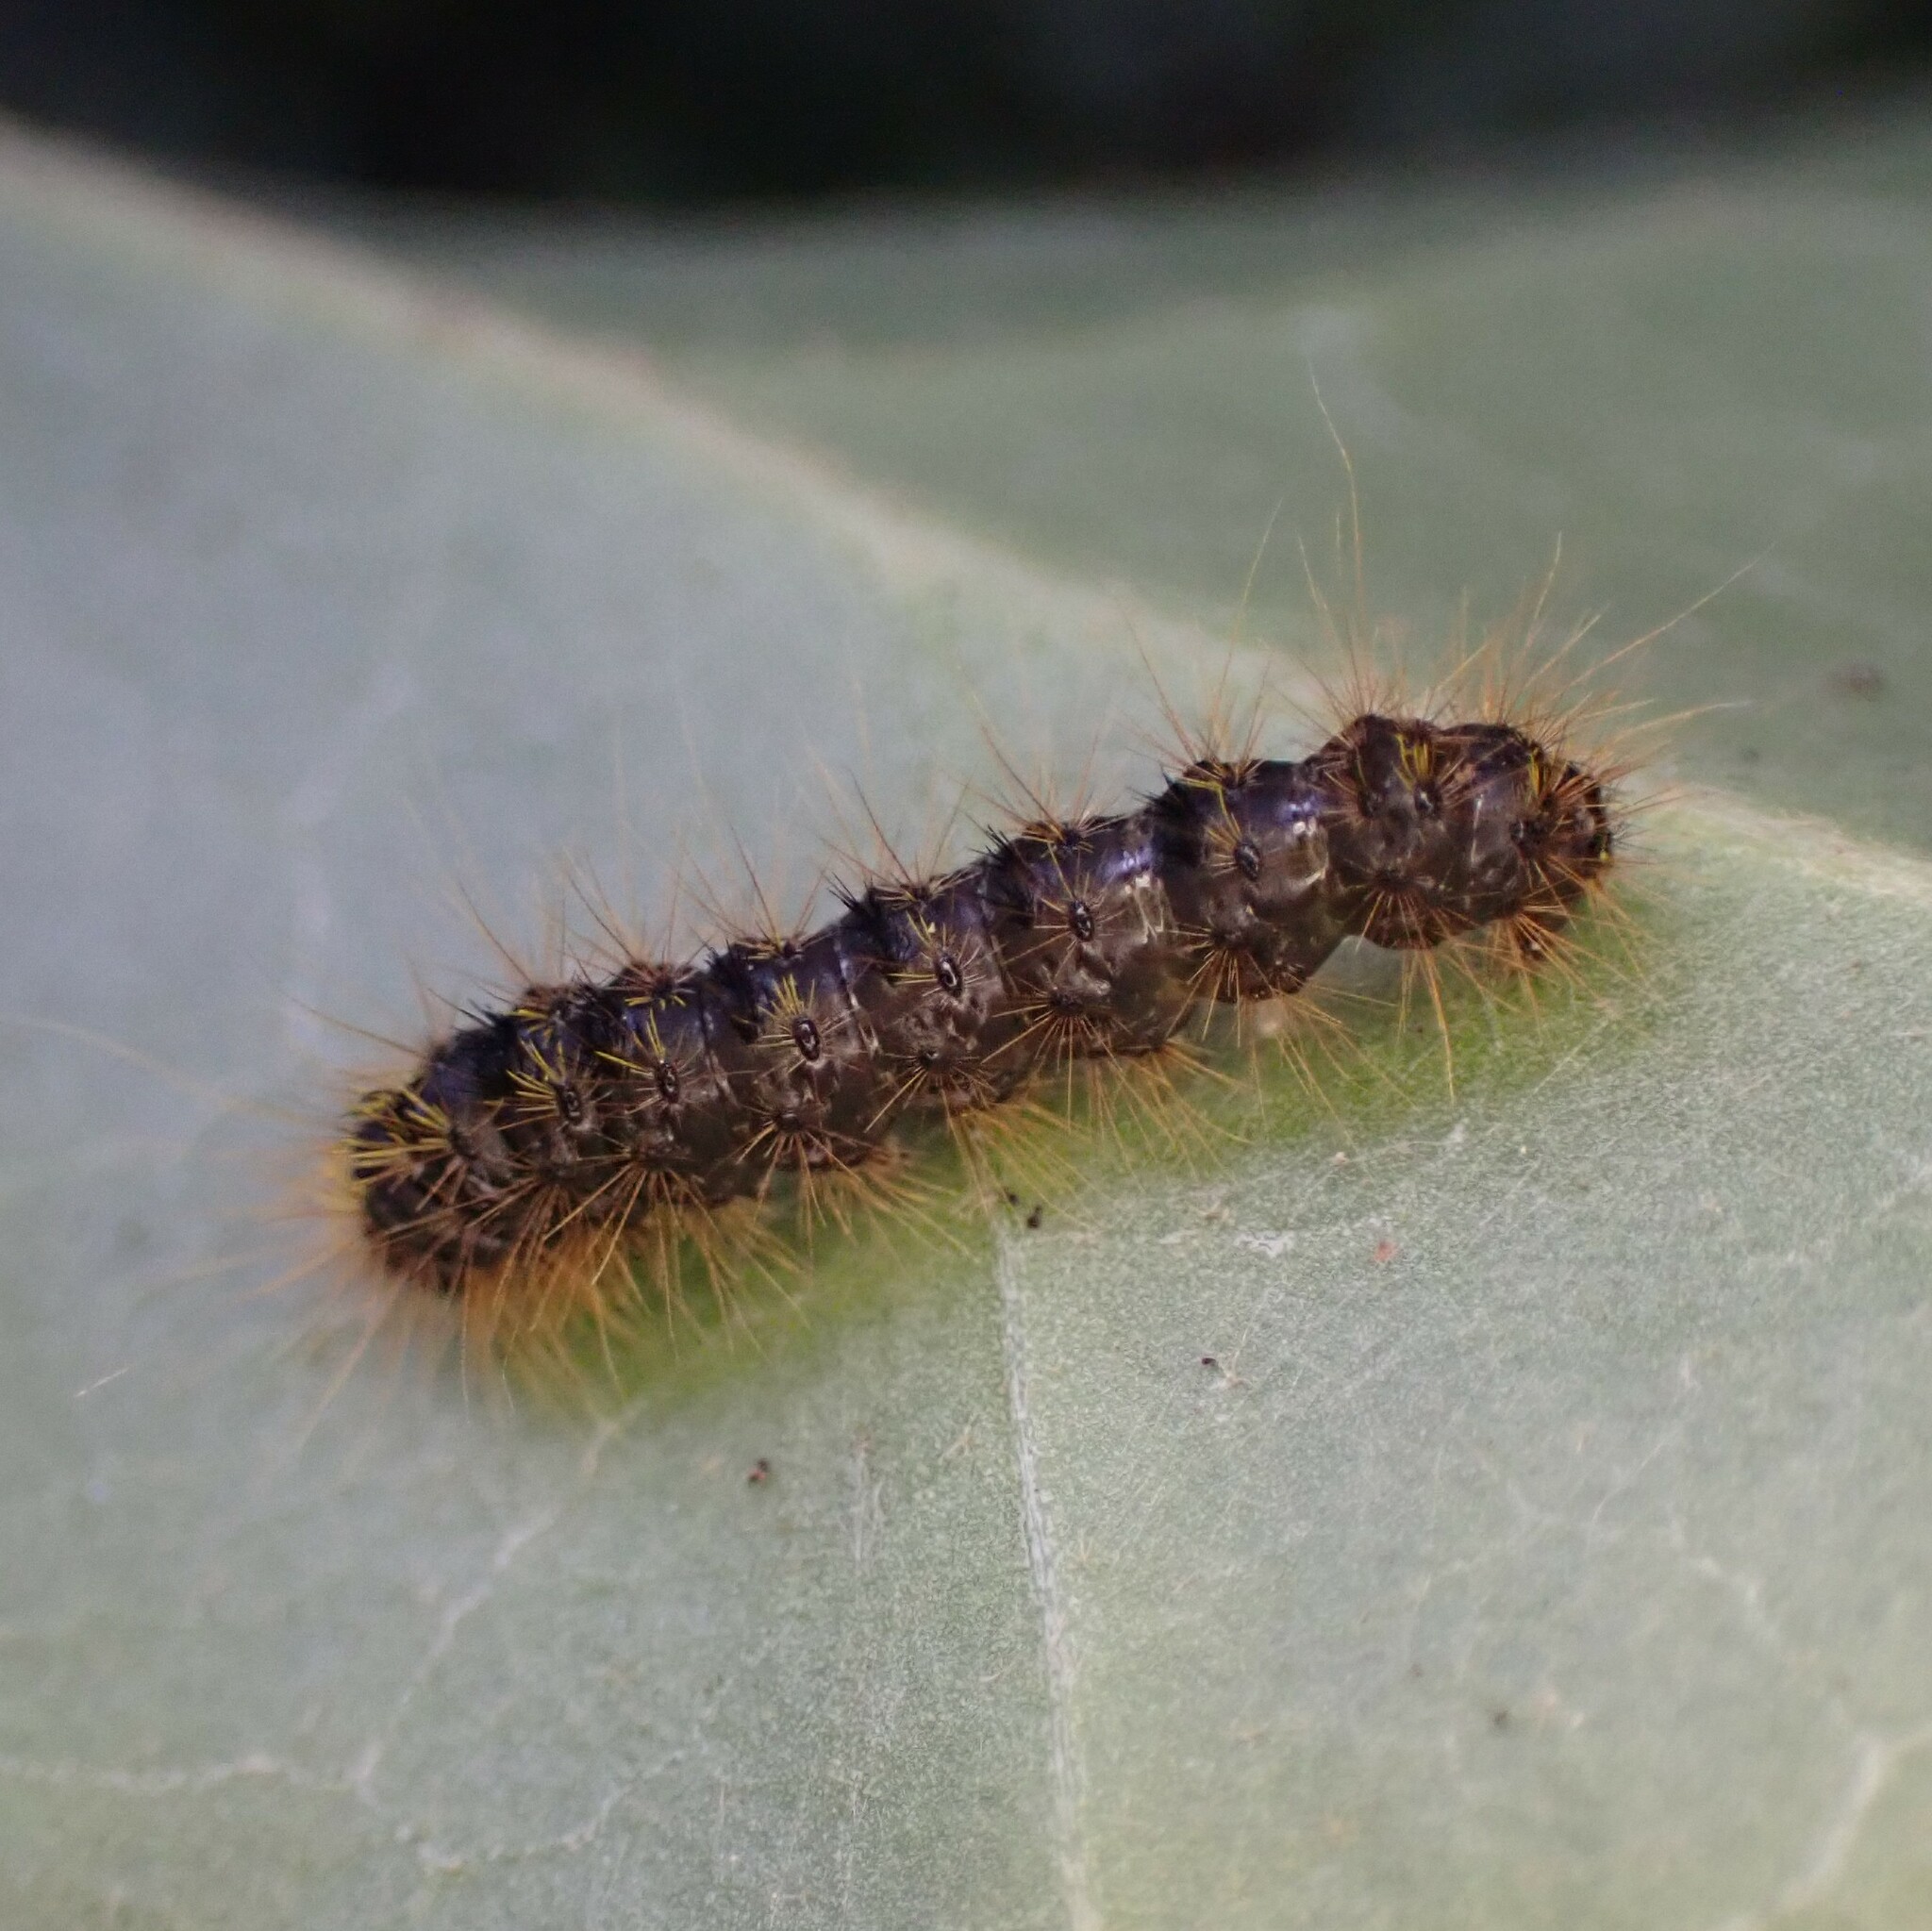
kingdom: Animalia
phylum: Arthropoda
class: Insecta
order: Lepidoptera
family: Erebidae
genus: Lophocampa
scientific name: Lophocampa argentata
